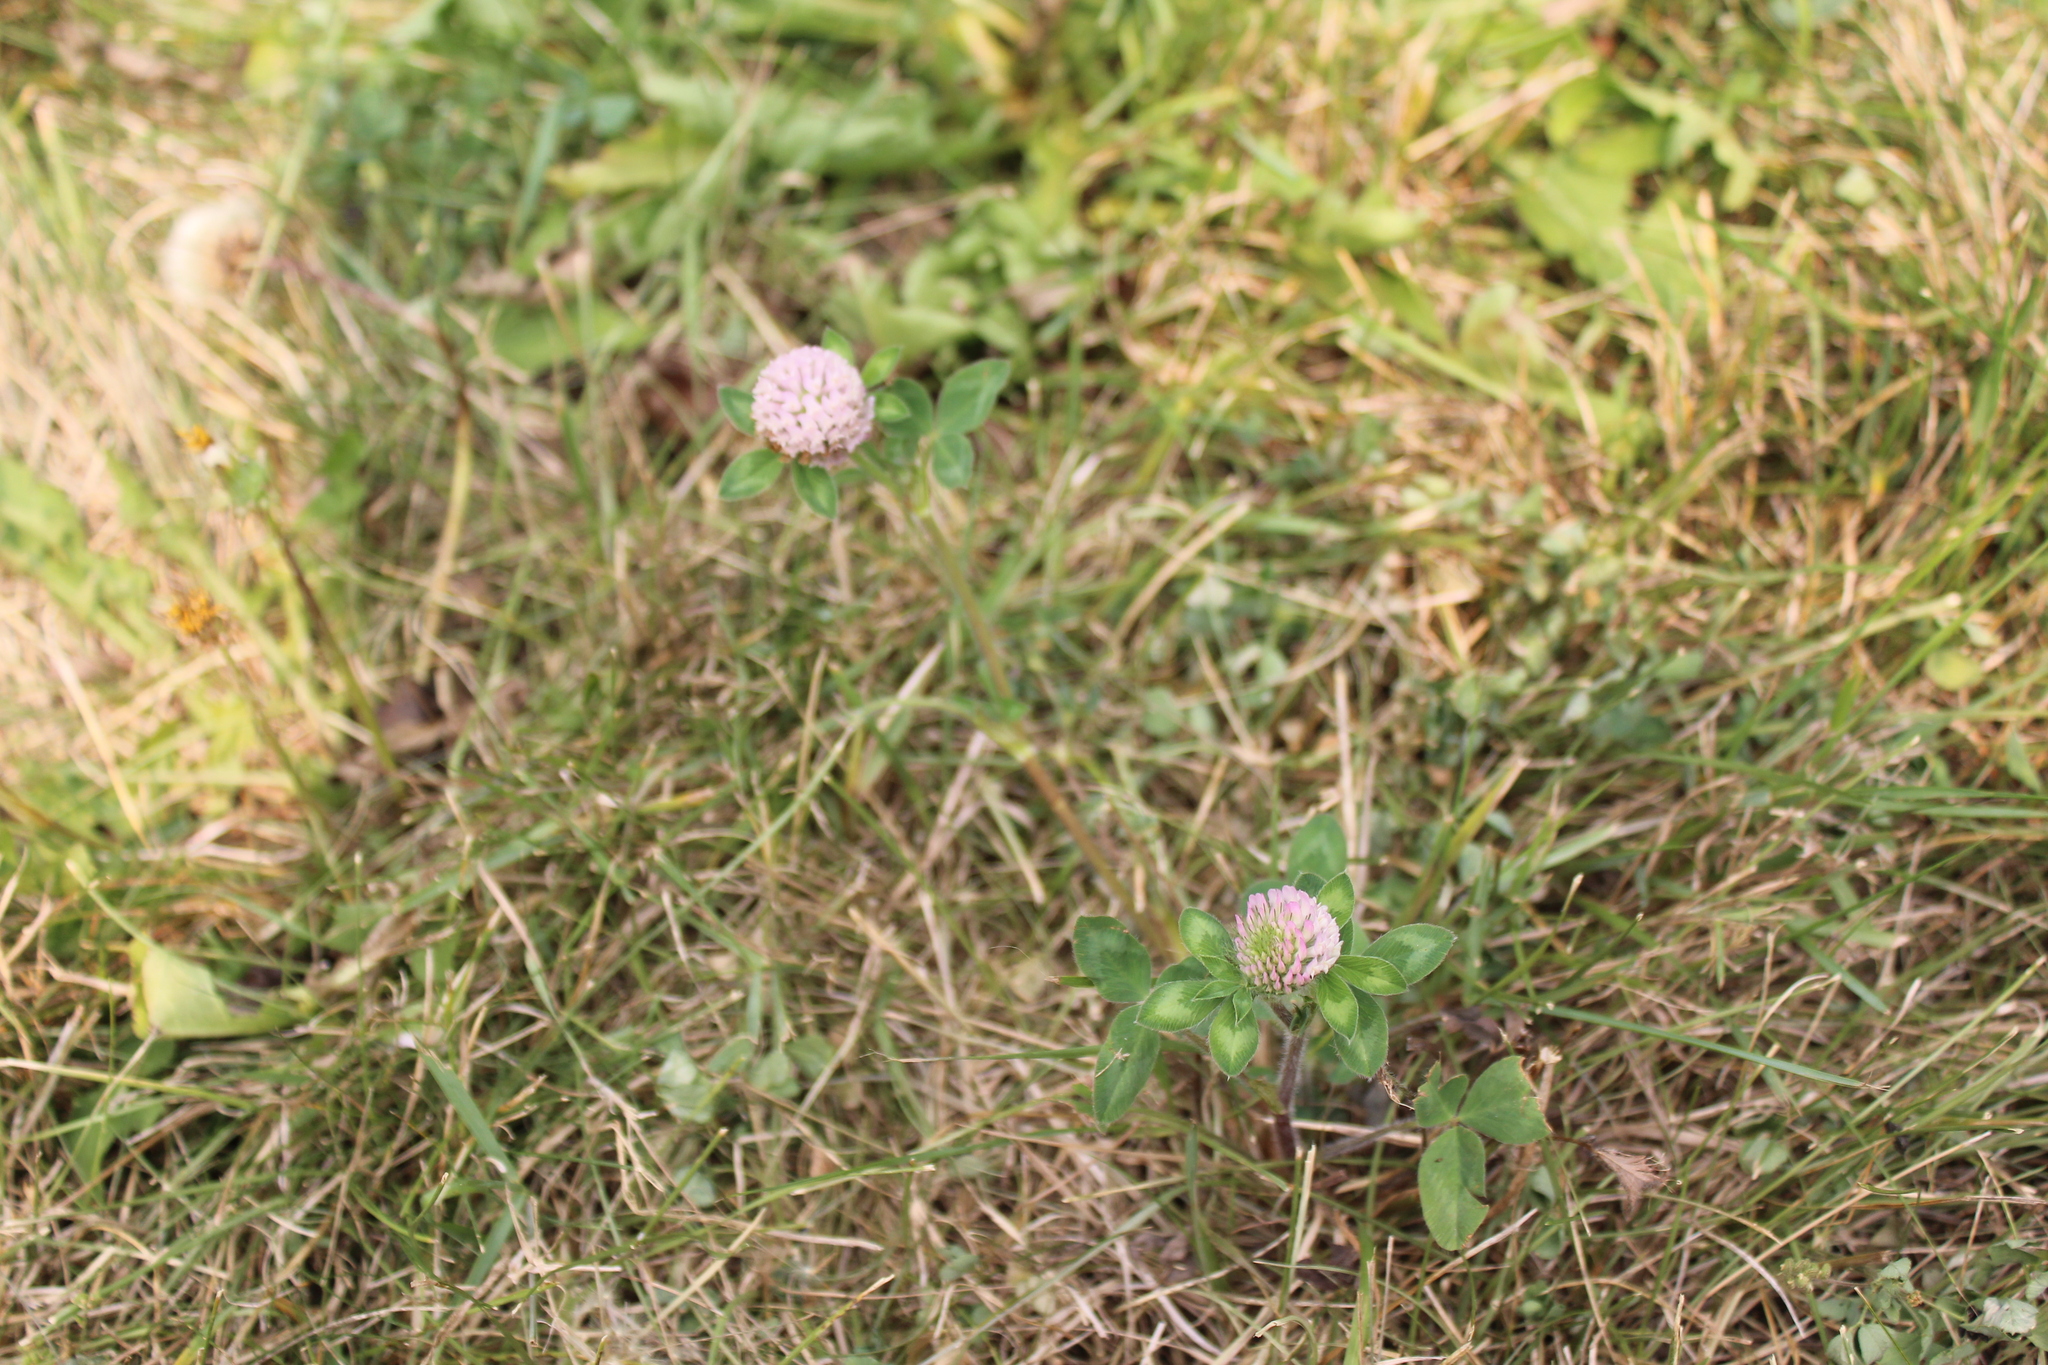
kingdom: Plantae
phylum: Tracheophyta
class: Magnoliopsida
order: Fabales
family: Fabaceae
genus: Trifolium
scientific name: Trifolium pratense
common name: Red clover
